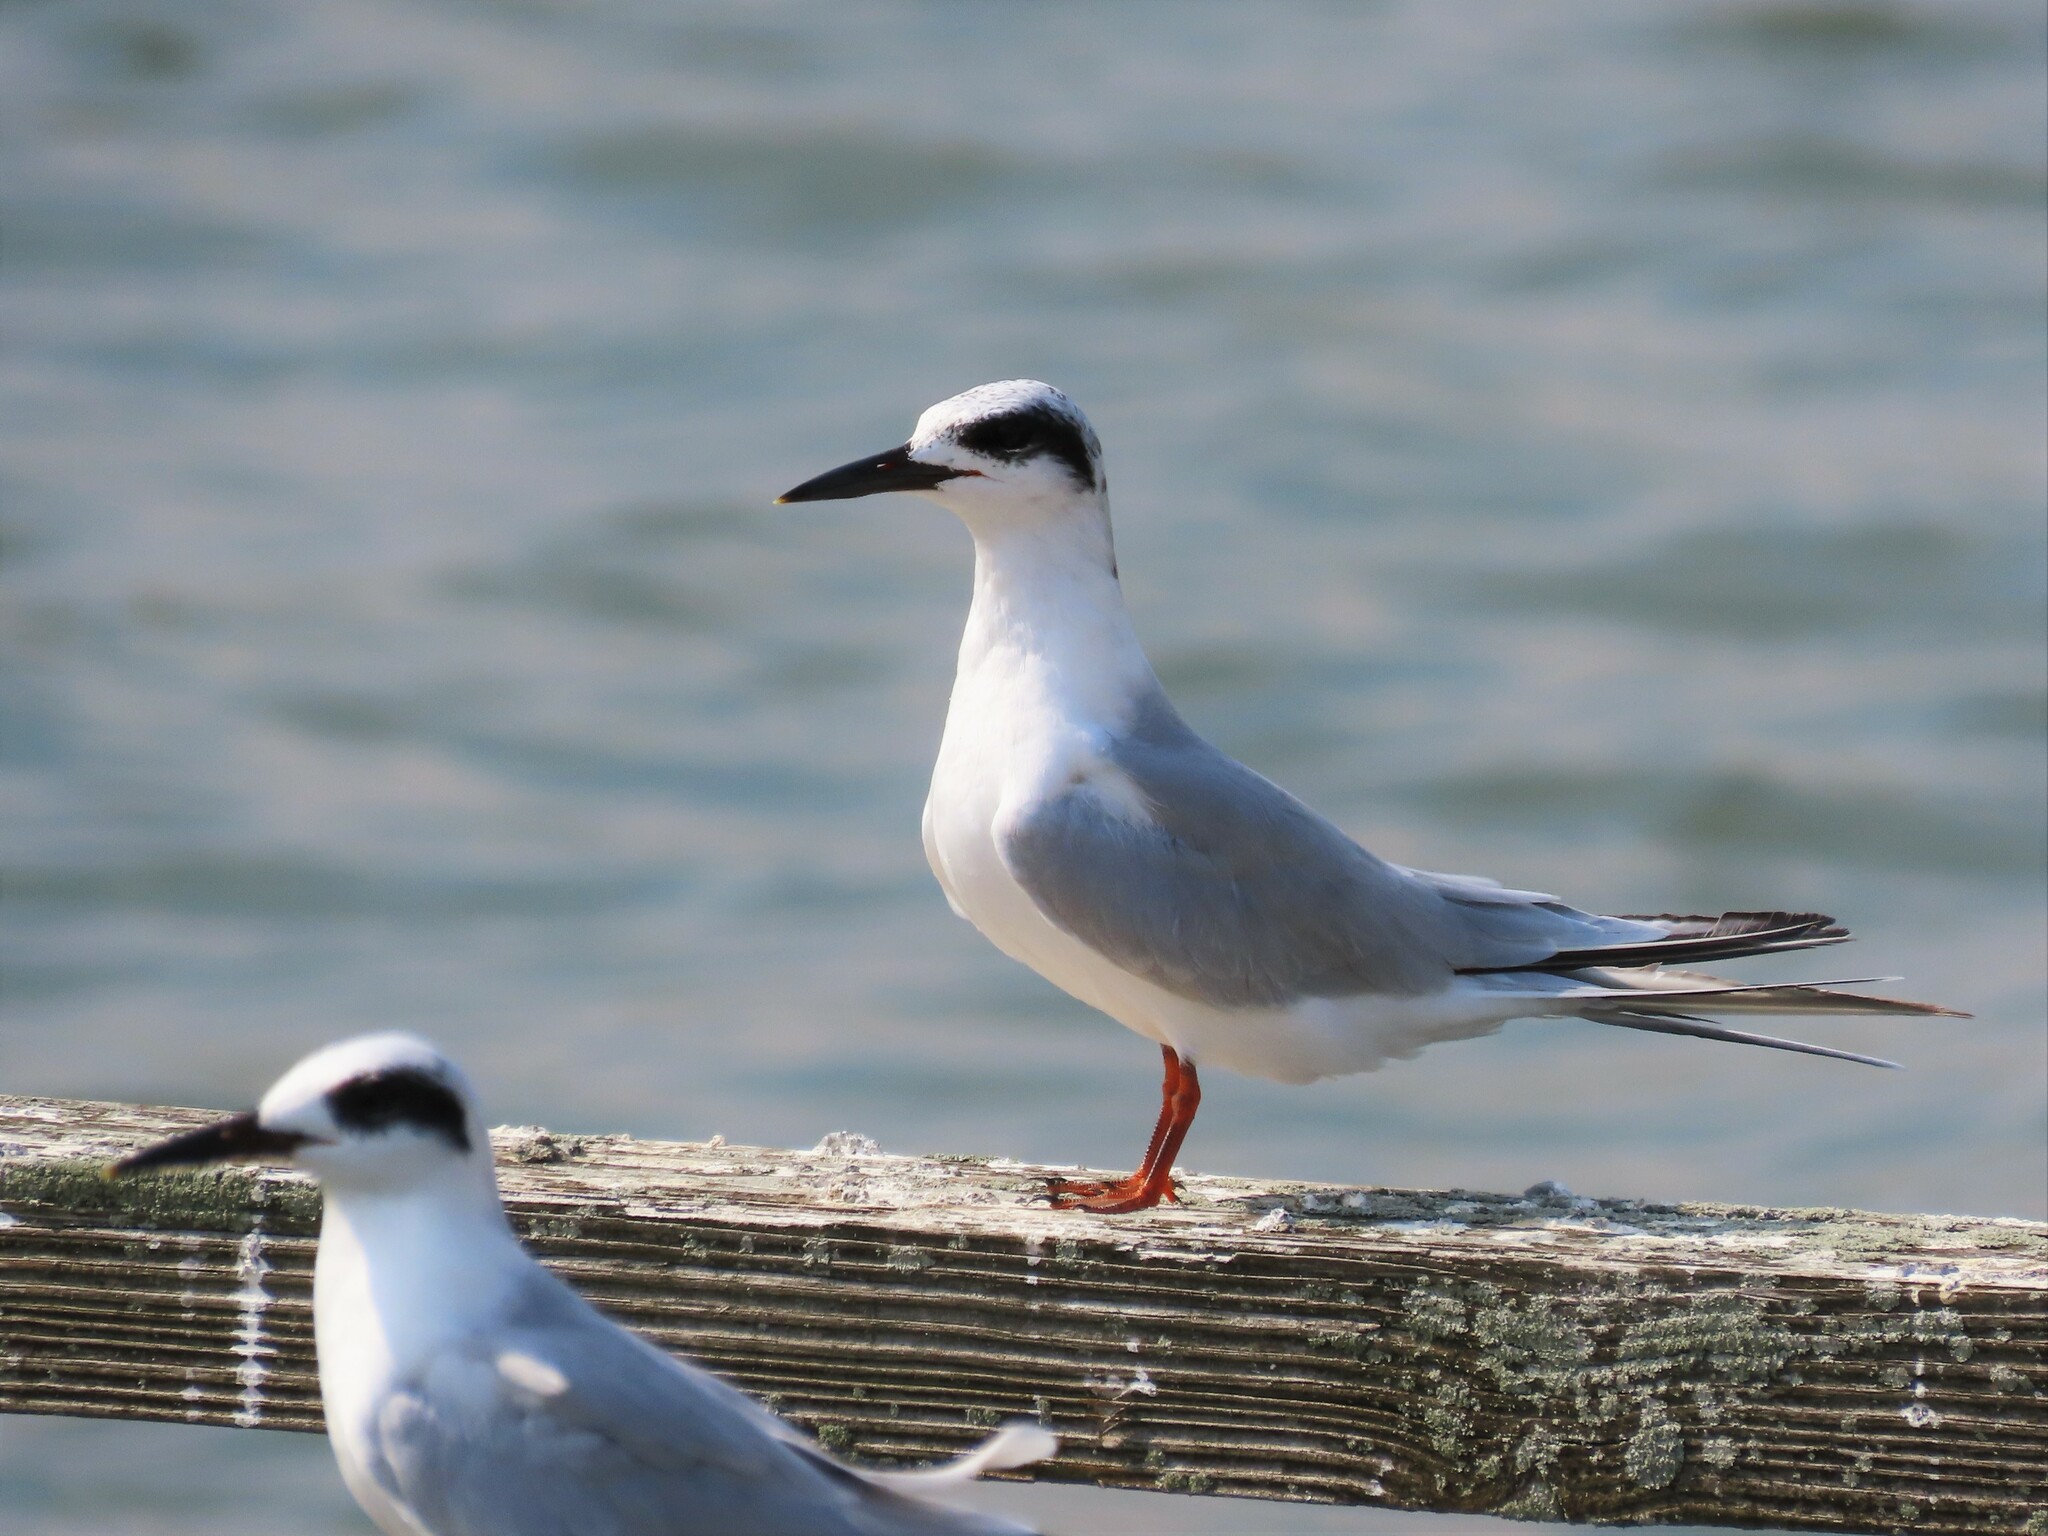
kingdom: Animalia
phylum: Chordata
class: Aves
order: Charadriiformes
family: Laridae
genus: Sterna
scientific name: Sterna forsteri
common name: Forster's tern
